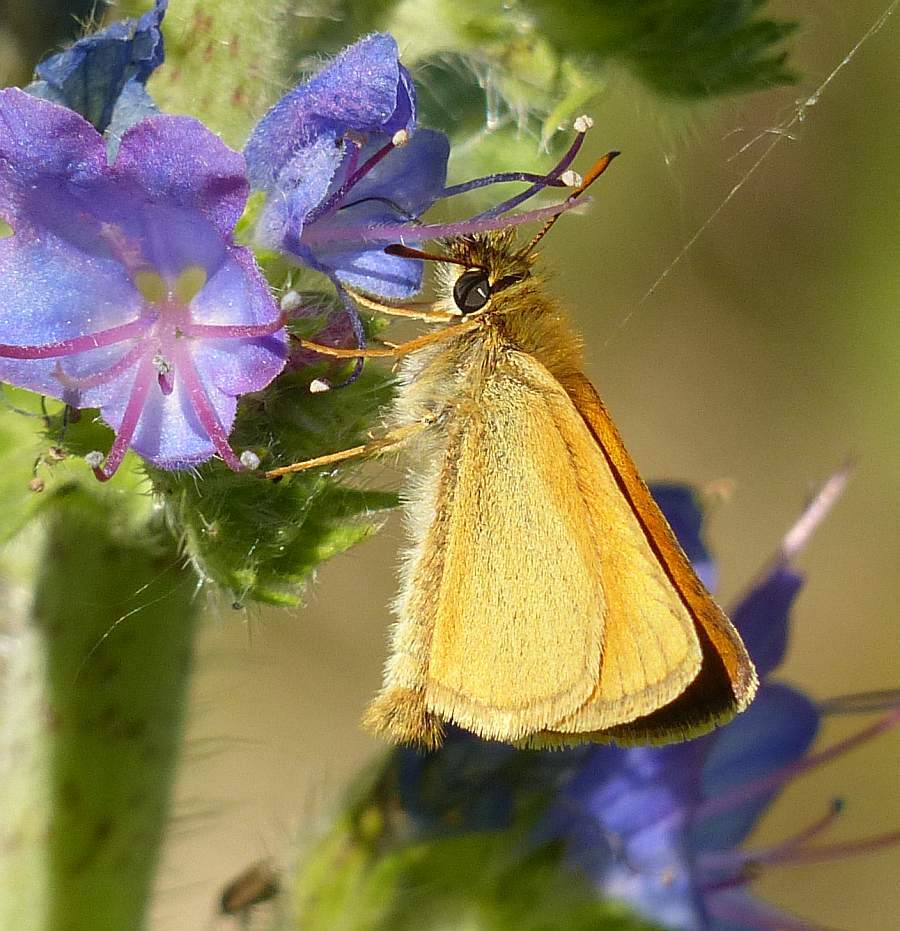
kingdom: Animalia
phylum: Arthropoda
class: Insecta
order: Lepidoptera
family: Hesperiidae
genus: Thymelicus
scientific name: Thymelicus lineola
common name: Essex skipper
